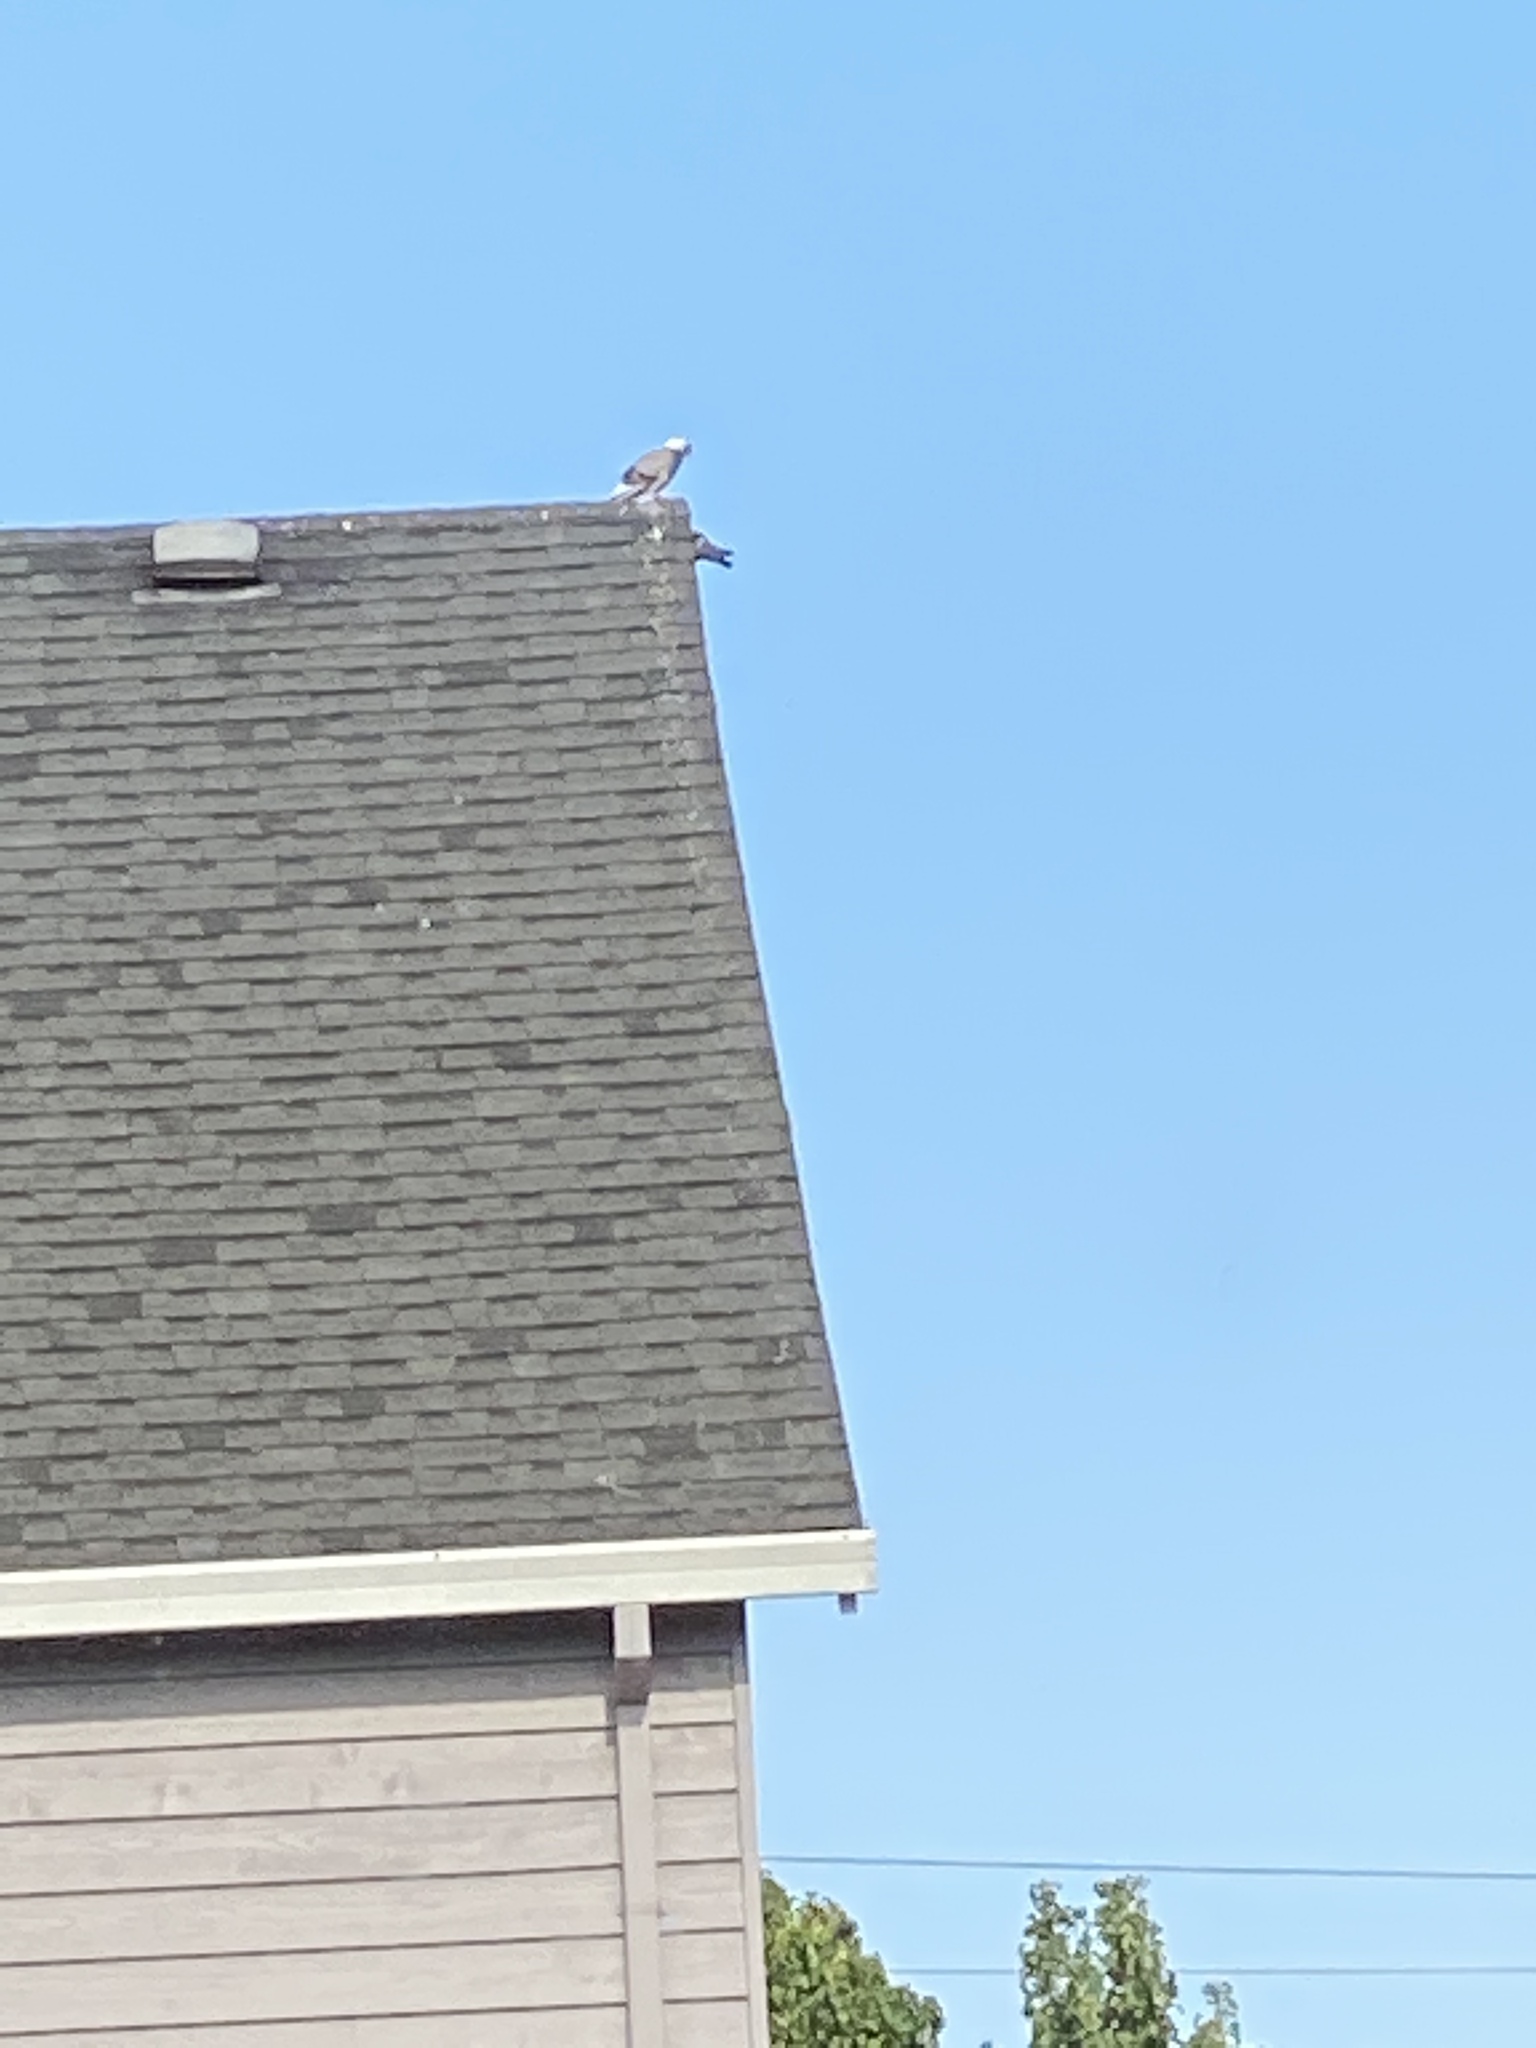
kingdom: Animalia
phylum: Chordata
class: Aves
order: Columbiformes
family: Columbidae
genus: Columba
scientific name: Columba livia
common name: Rock pigeon
